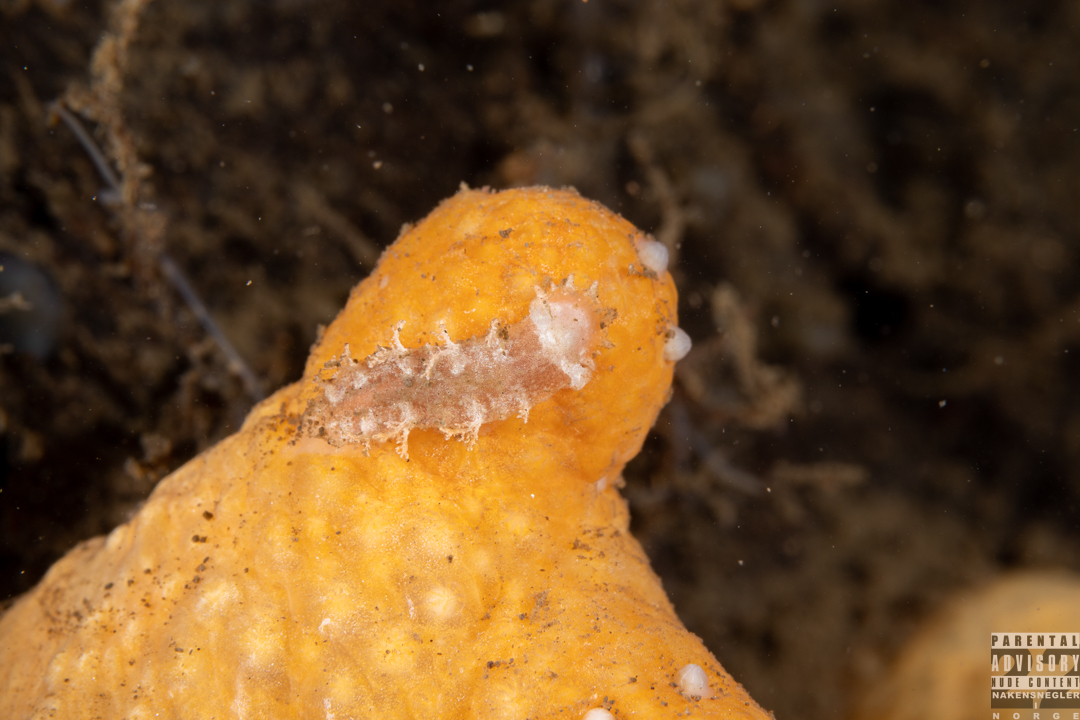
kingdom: Animalia
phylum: Mollusca
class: Gastropoda
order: Nudibranchia
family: Tritoniidae
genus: Duvaucelia
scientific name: Duvaucelia plebeia
